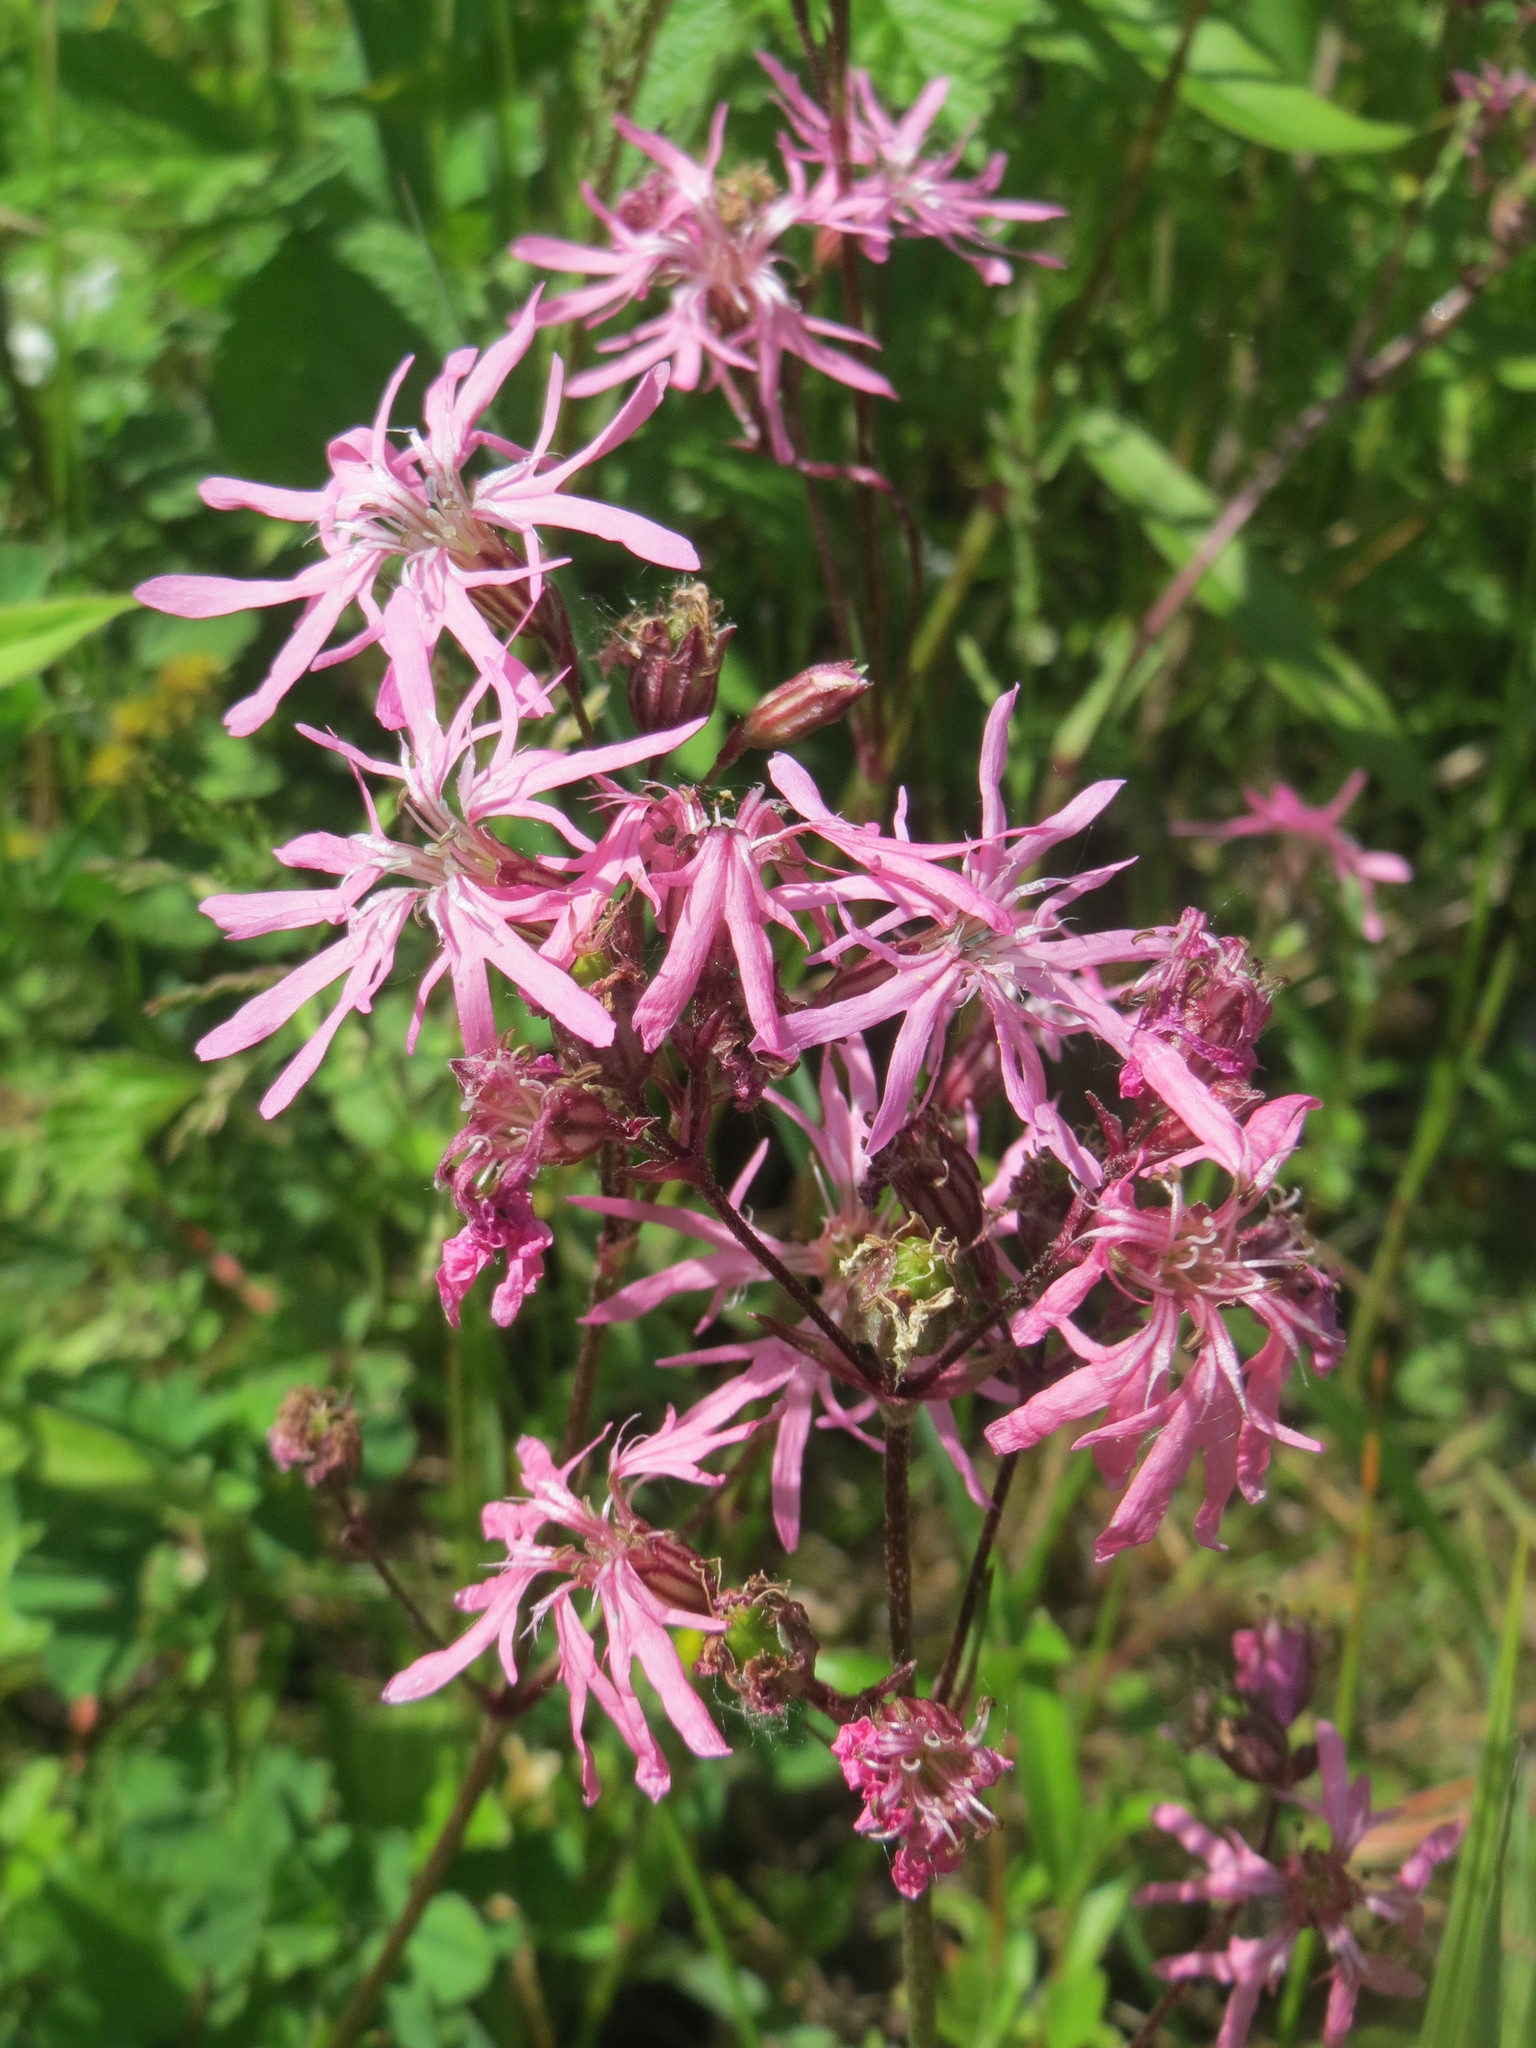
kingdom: Plantae
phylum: Tracheophyta
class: Magnoliopsida
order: Caryophyllales
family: Caryophyllaceae
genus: Silene
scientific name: Silene flos-cuculi
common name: Ragged-robin
